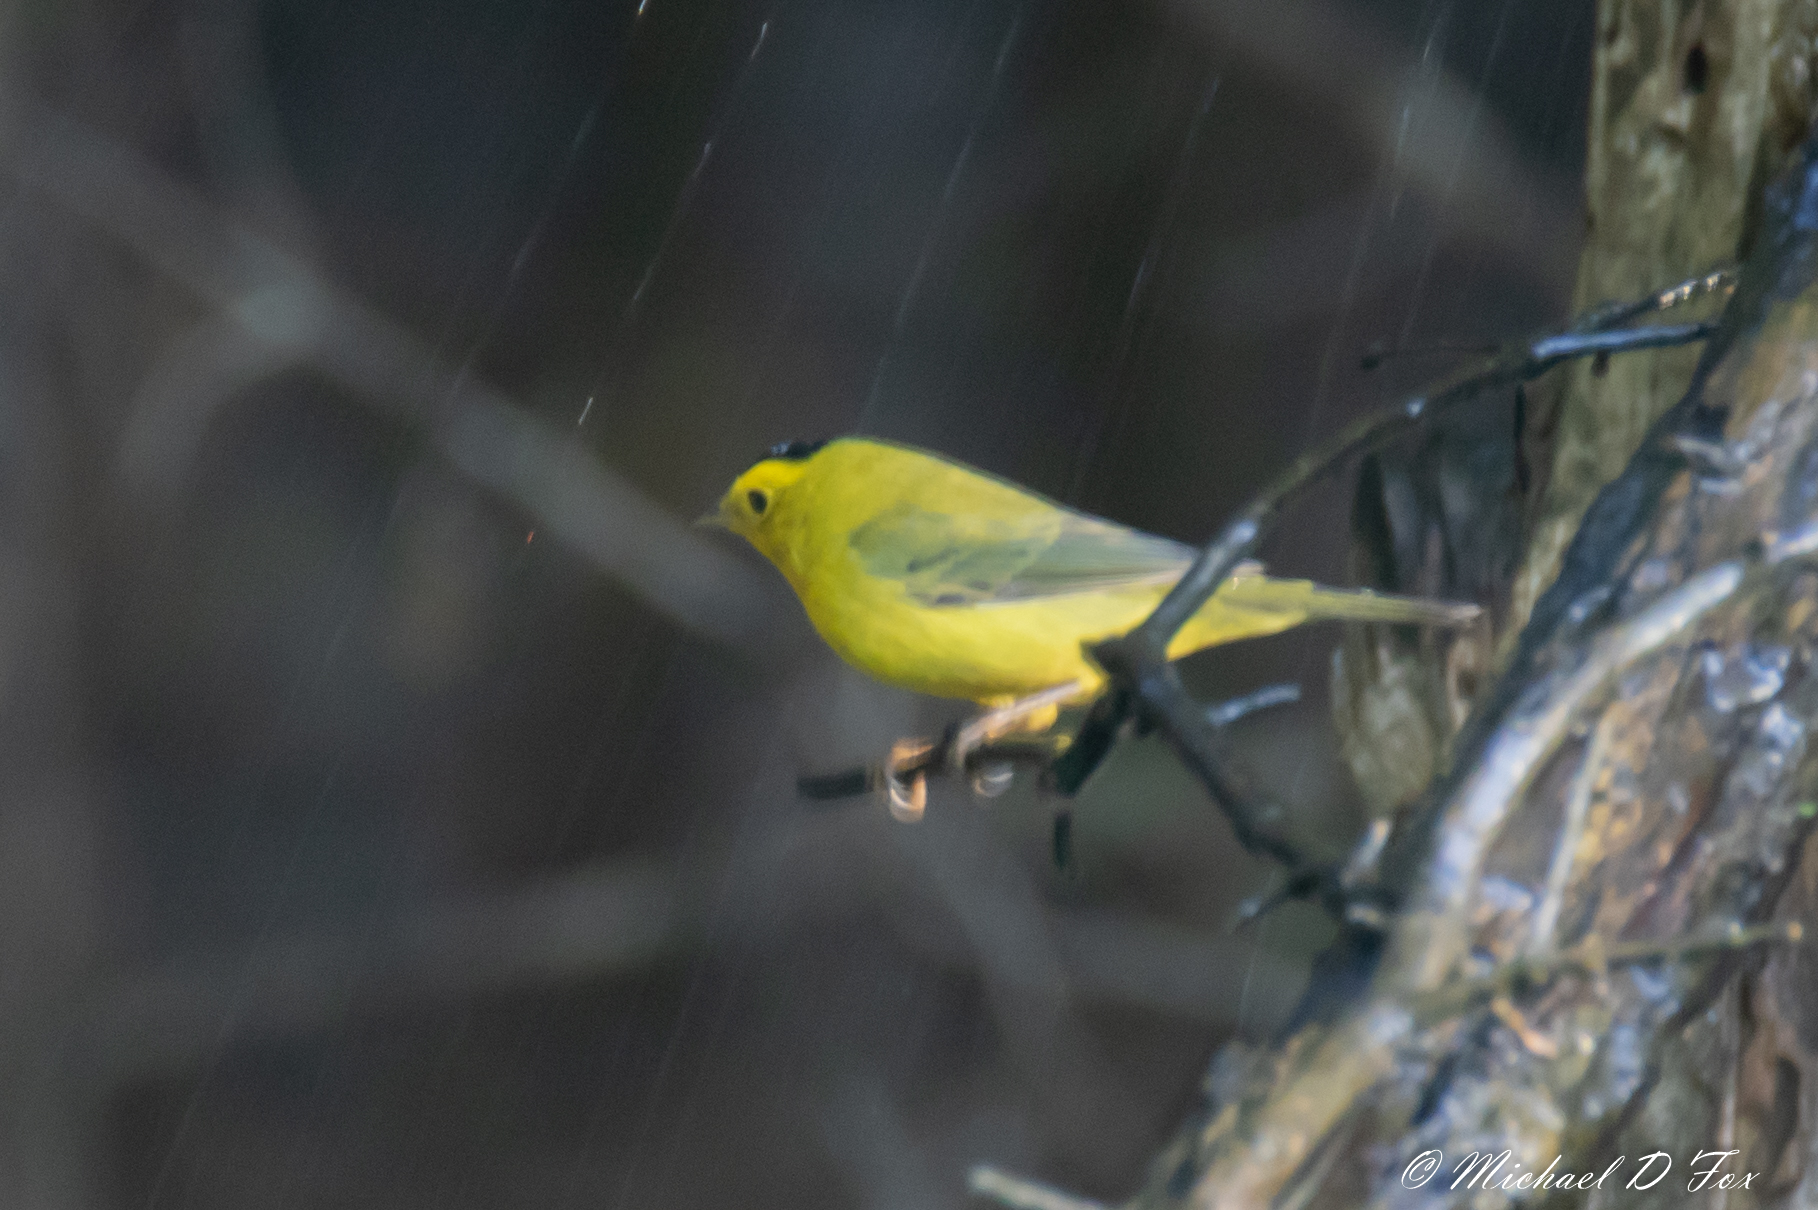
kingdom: Animalia
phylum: Chordata
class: Aves
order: Passeriformes
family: Parulidae
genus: Cardellina
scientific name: Cardellina pusilla
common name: Wilson's warbler
